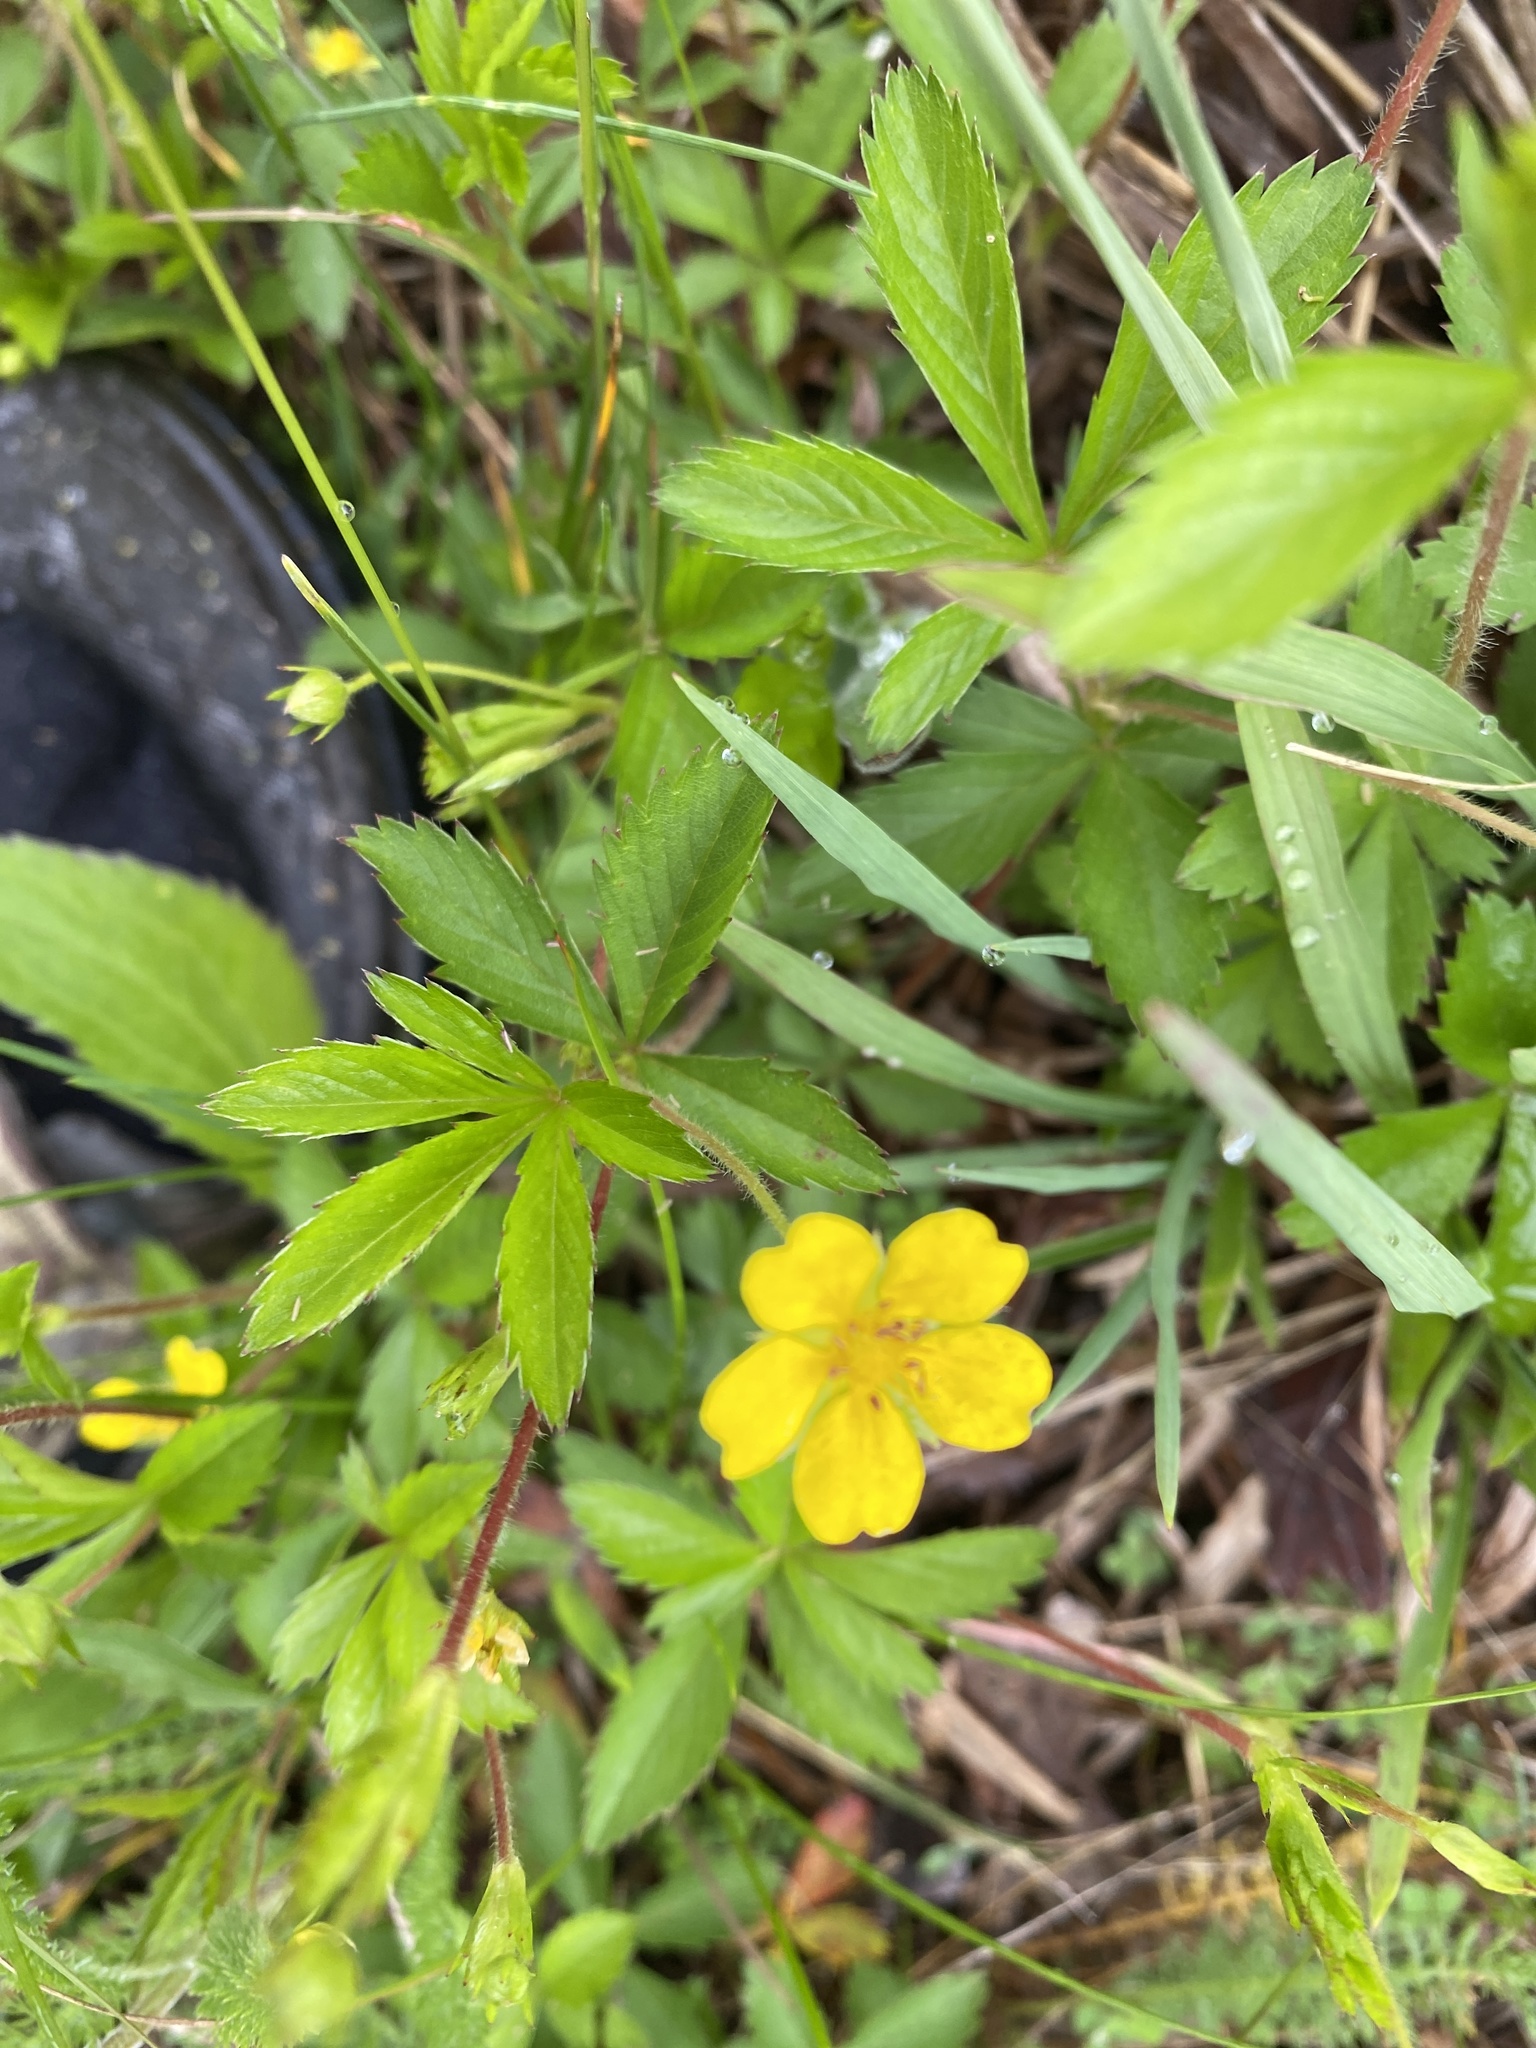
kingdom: Plantae
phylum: Tracheophyta
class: Magnoliopsida
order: Rosales
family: Rosaceae
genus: Potentilla
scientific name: Potentilla simplex
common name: Old field cinquefoil
